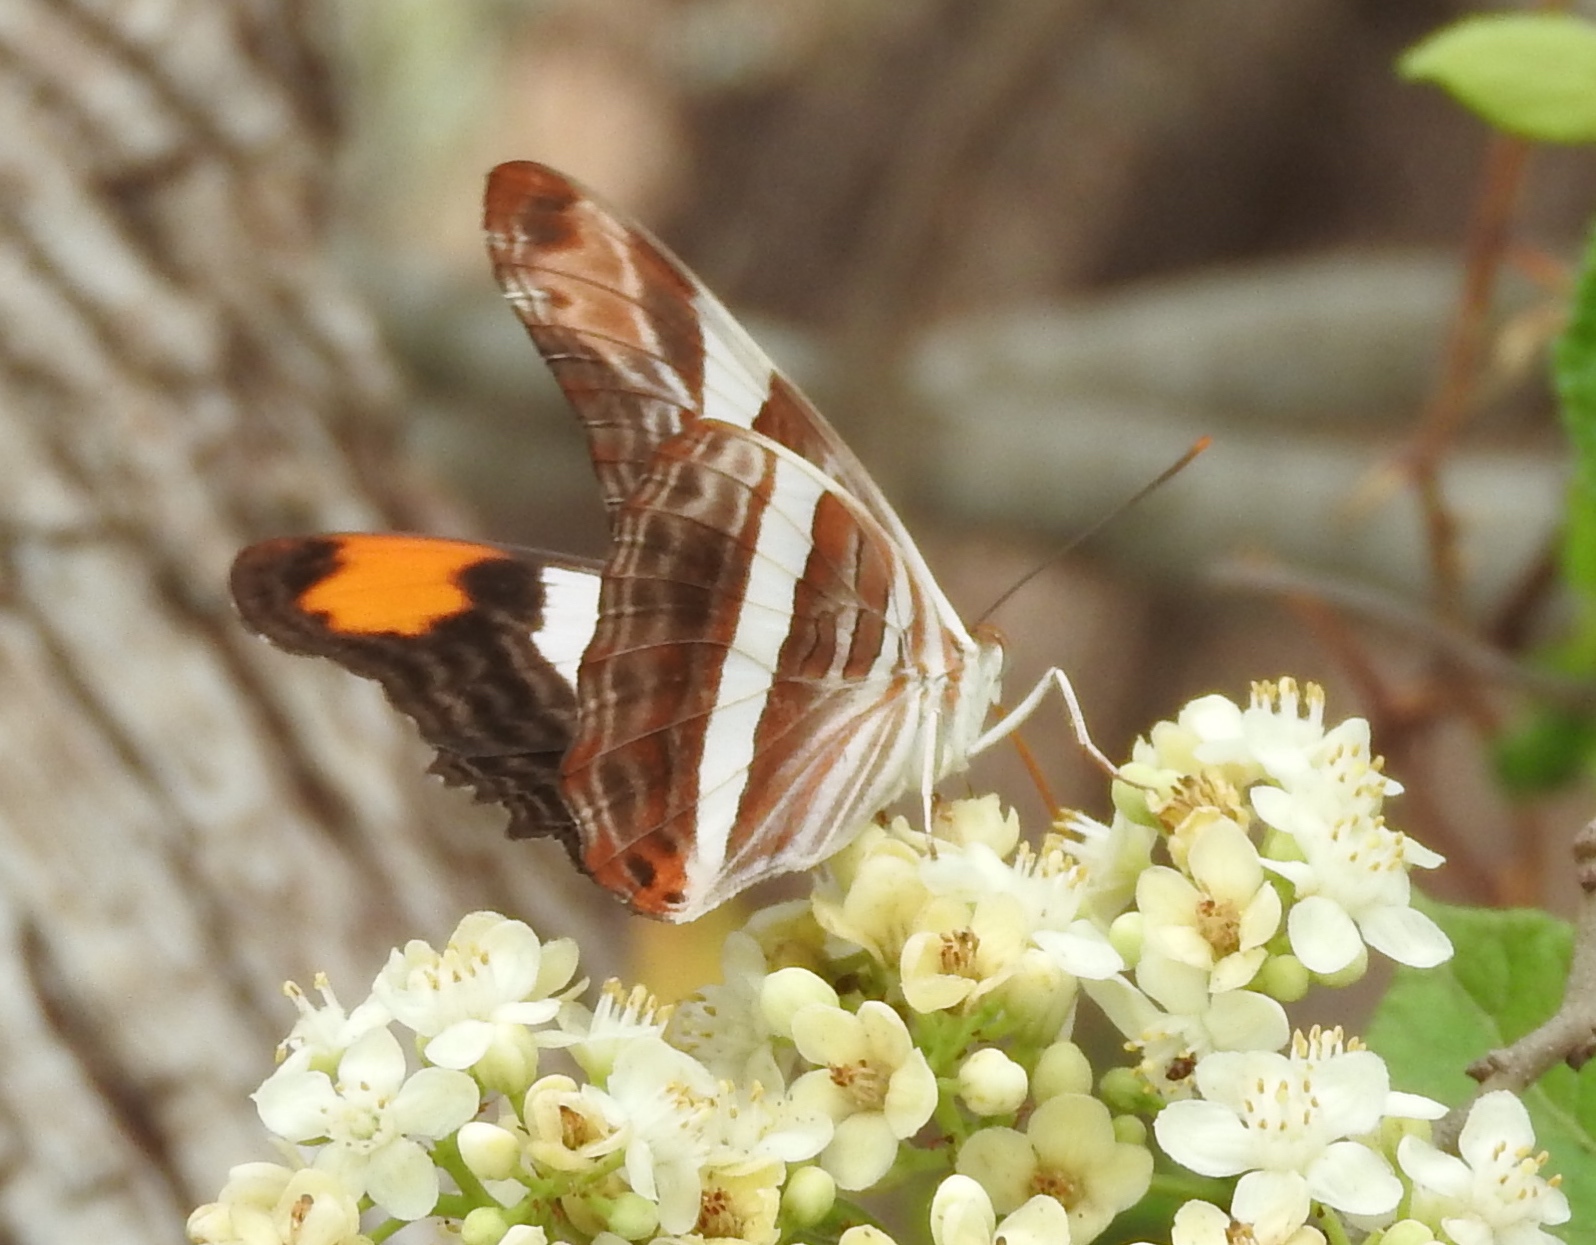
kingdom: Animalia
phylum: Arthropoda
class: Insecta
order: Lepidoptera
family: Nymphalidae
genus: Limenitis
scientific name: Limenitis fessonia
